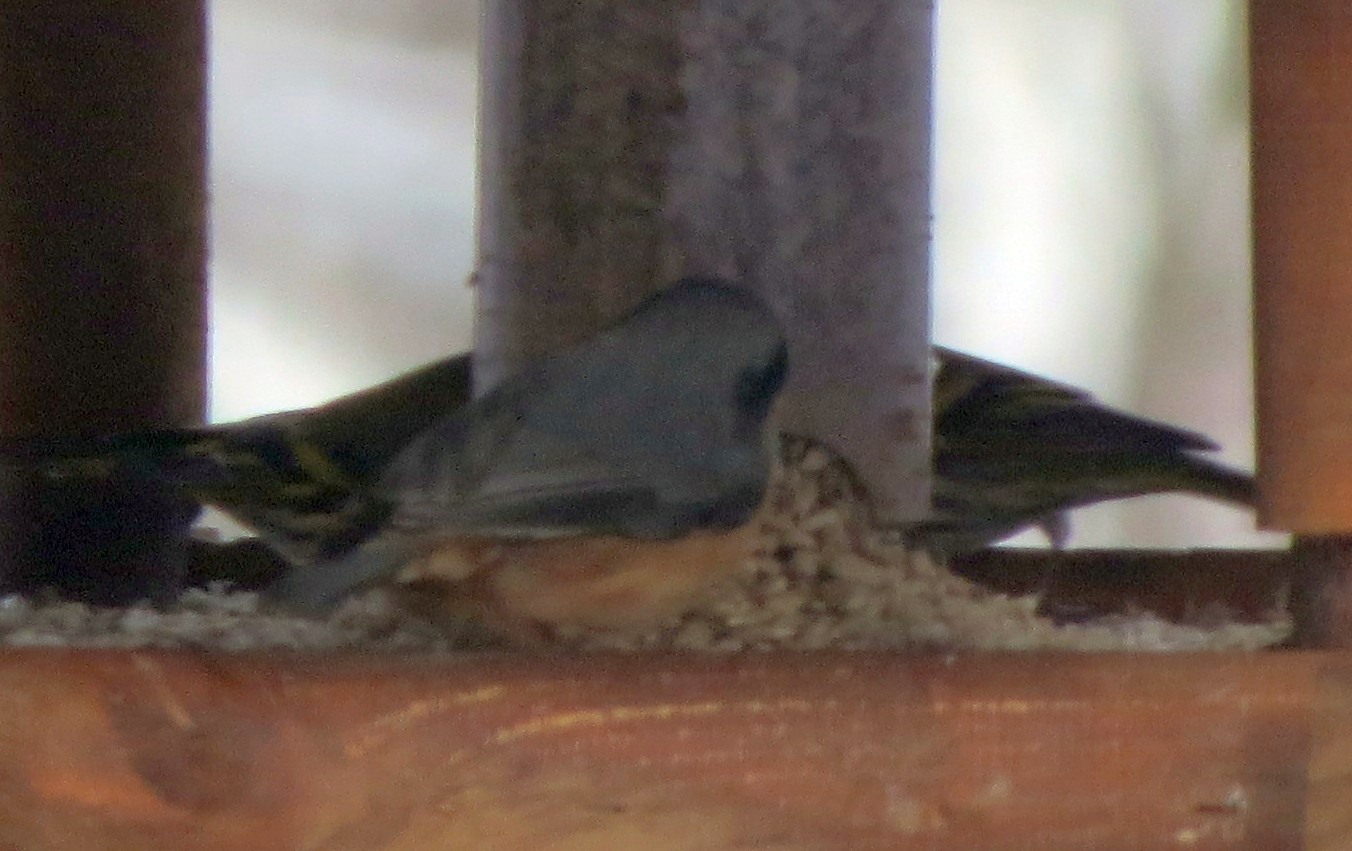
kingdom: Animalia
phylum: Chordata
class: Aves
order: Passeriformes
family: Sittidae
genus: Sitta
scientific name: Sitta europaea
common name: Eurasian nuthatch
